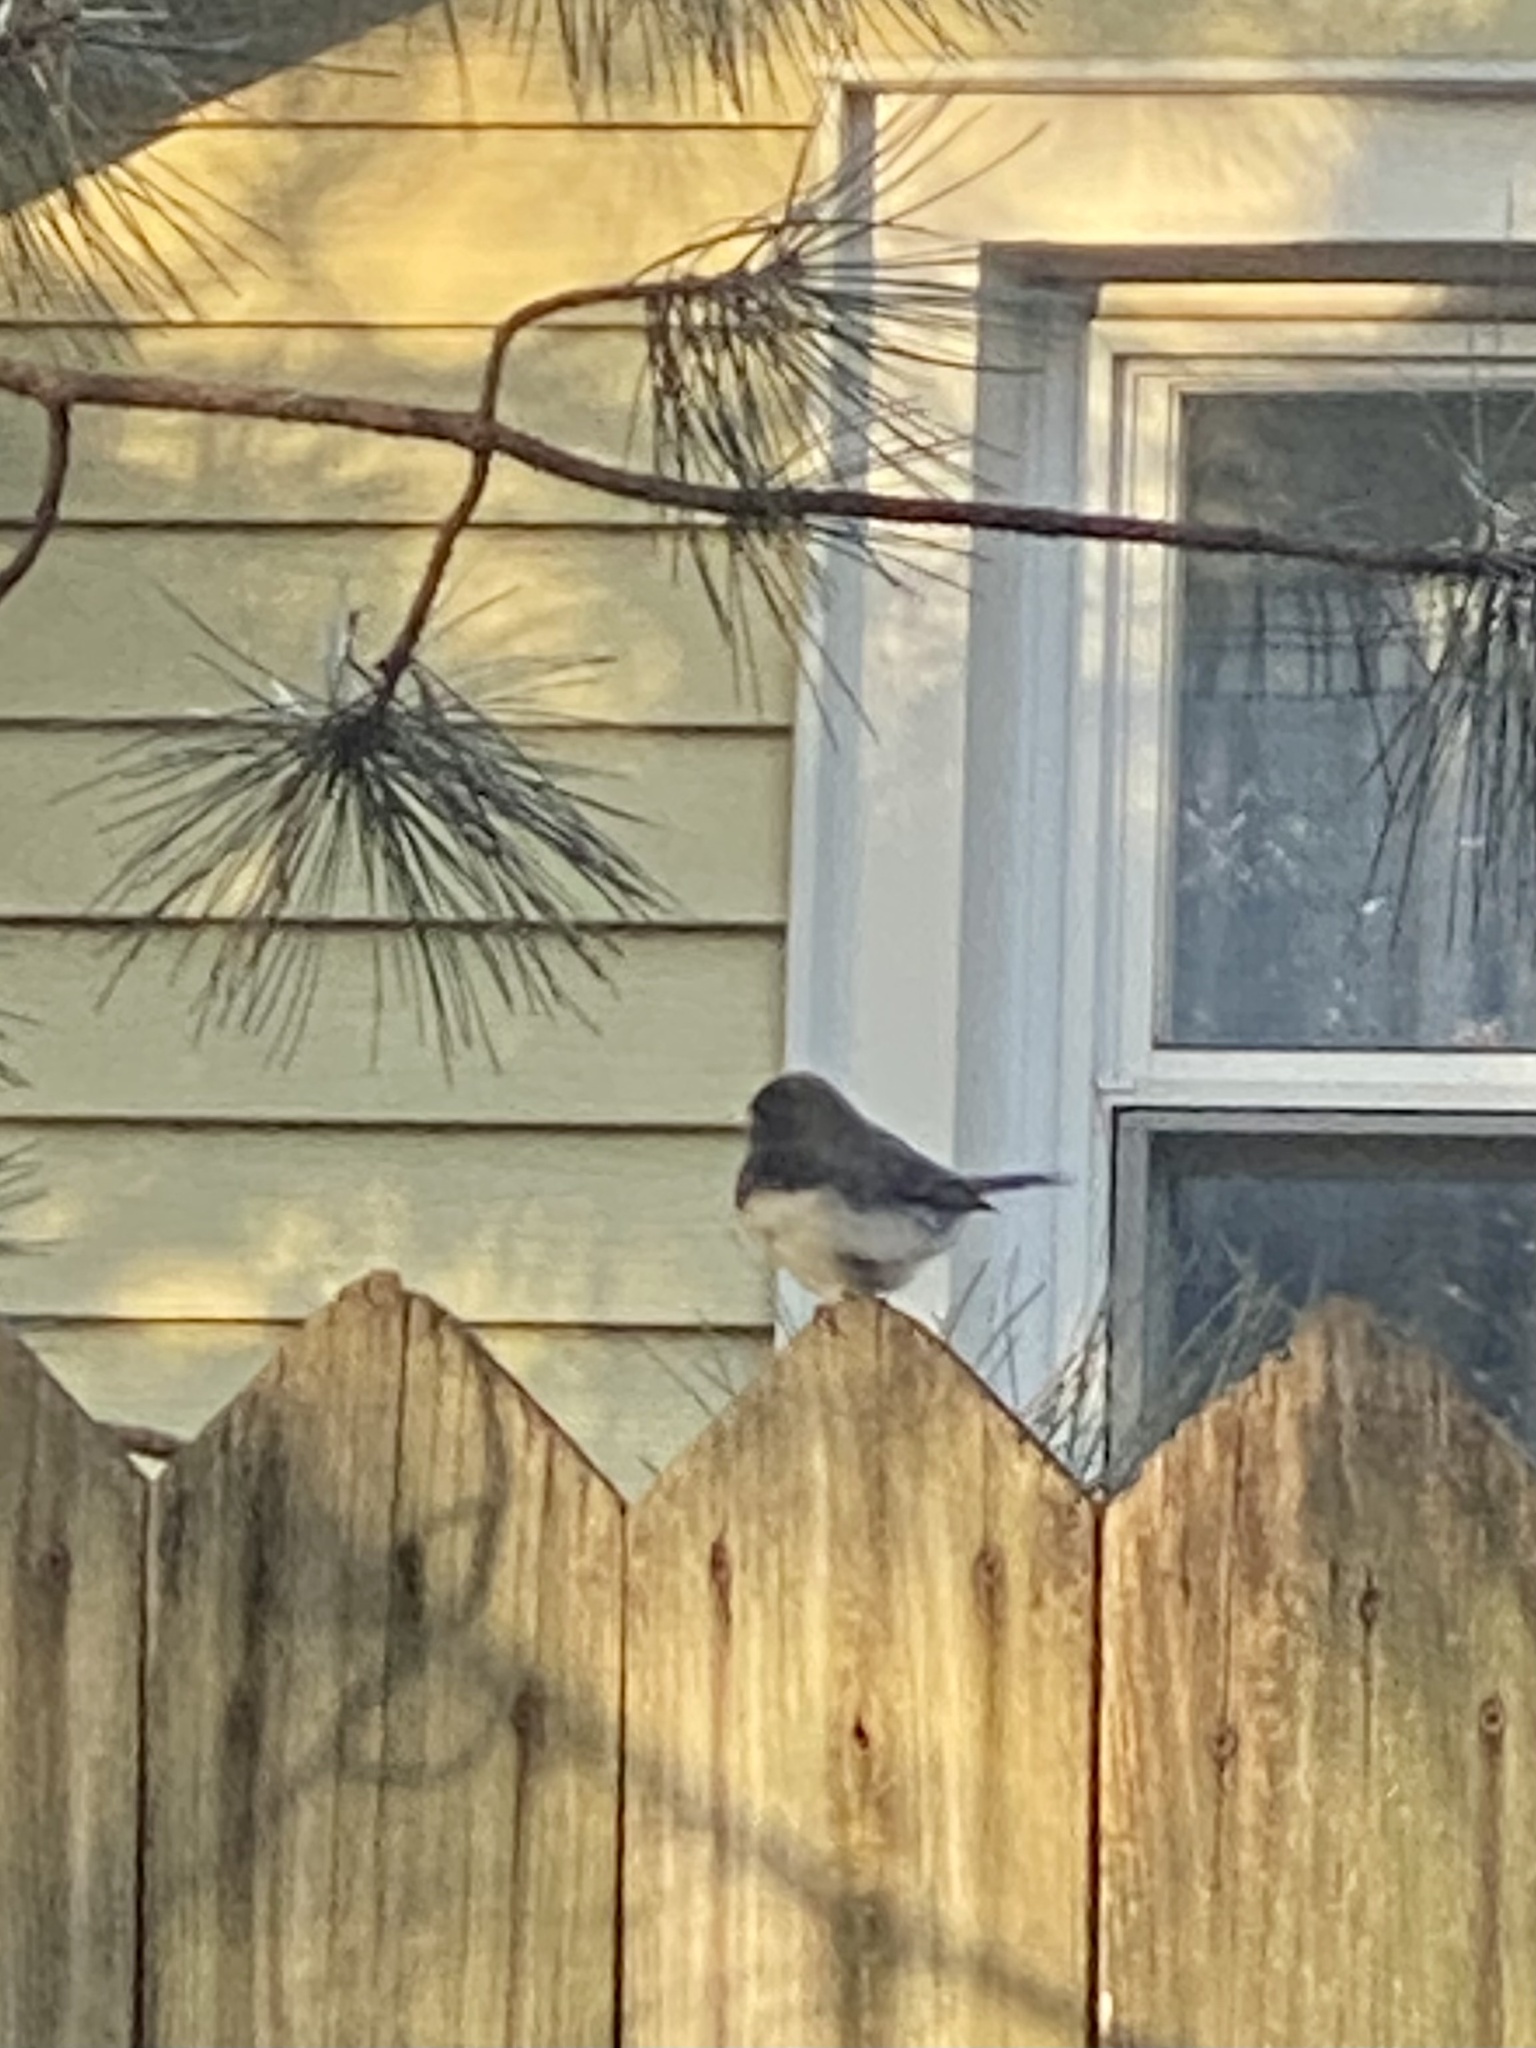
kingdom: Animalia
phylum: Chordata
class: Aves
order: Passeriformes
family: Passerellidae
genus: Junco
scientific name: Junco hyemalis
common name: Dark-eyed junco
